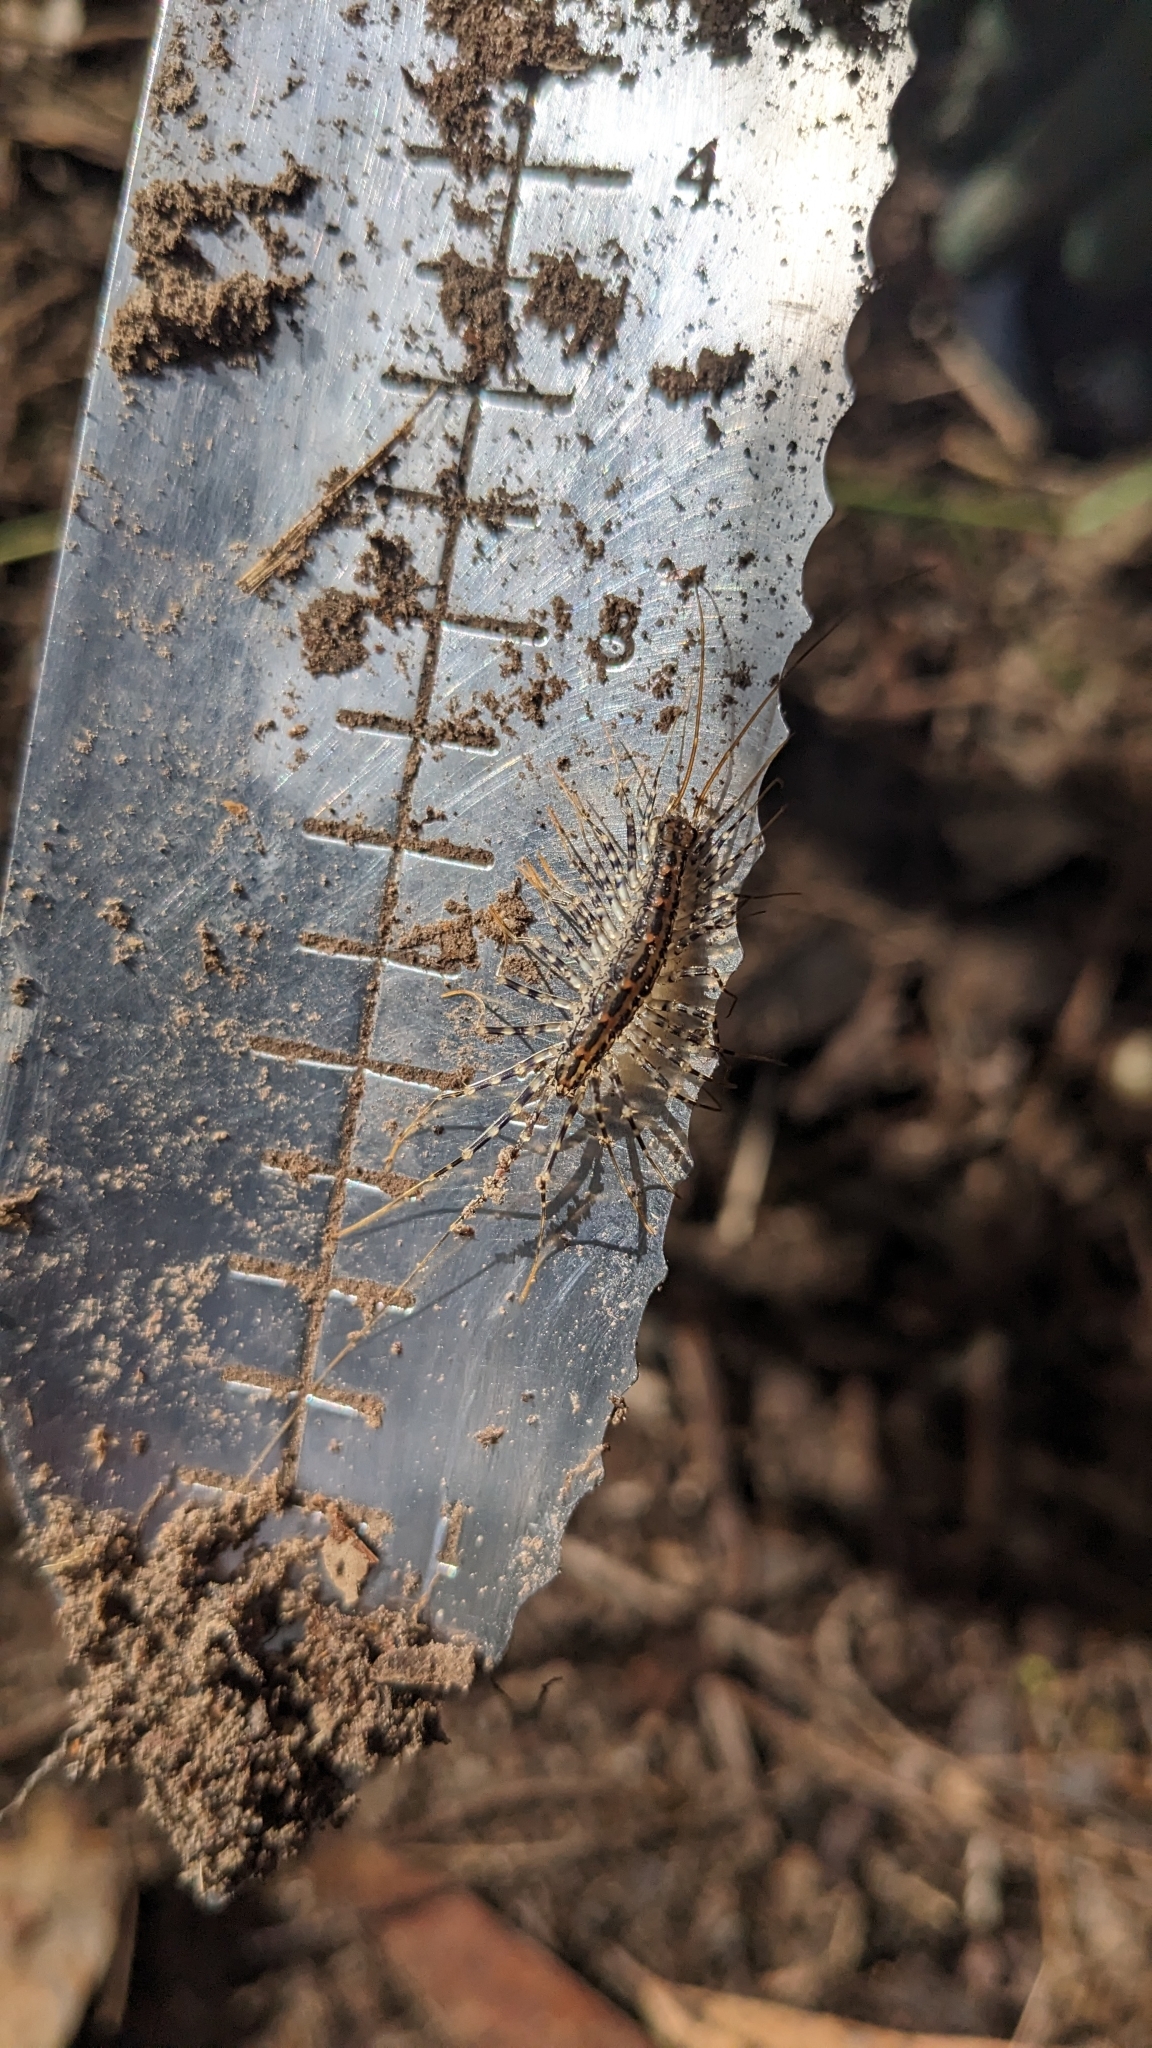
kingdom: Animalia
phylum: Arthropoda
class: Chilopoda
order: Scutigeromorpha
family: Scutigeridae
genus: Allothereua
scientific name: Allothereua maculata
